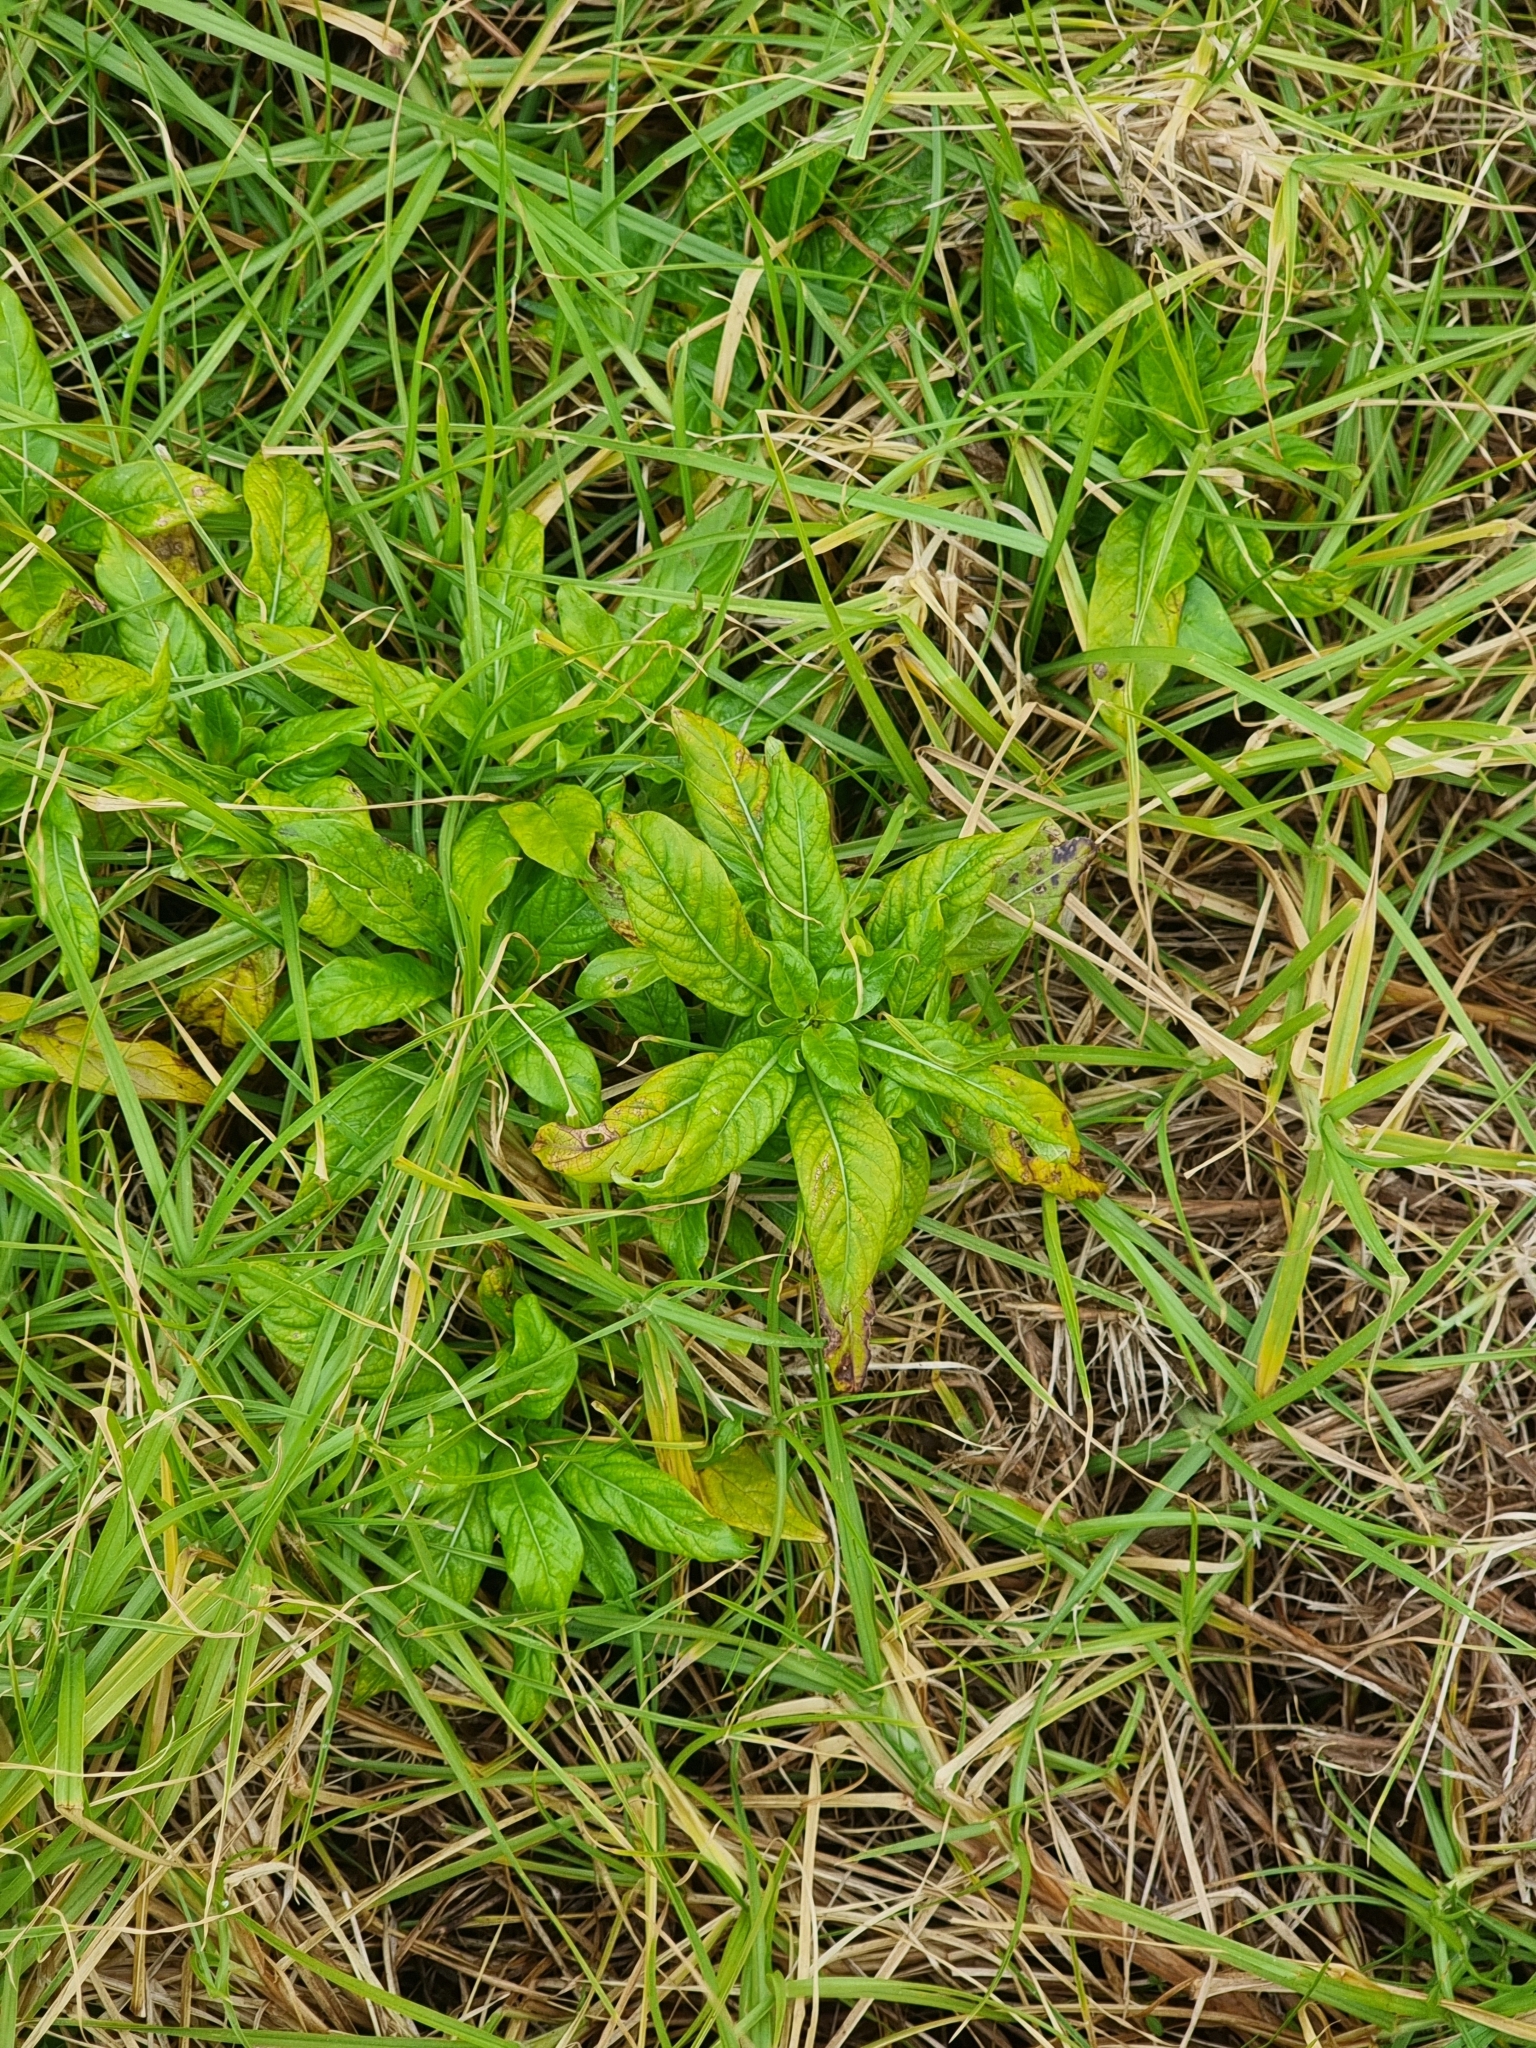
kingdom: Plantae
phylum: Tracheophyta
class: Magnoliopsida
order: Gentianales
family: Rubiaceae
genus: Phyllis
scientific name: Phyllis nobla
